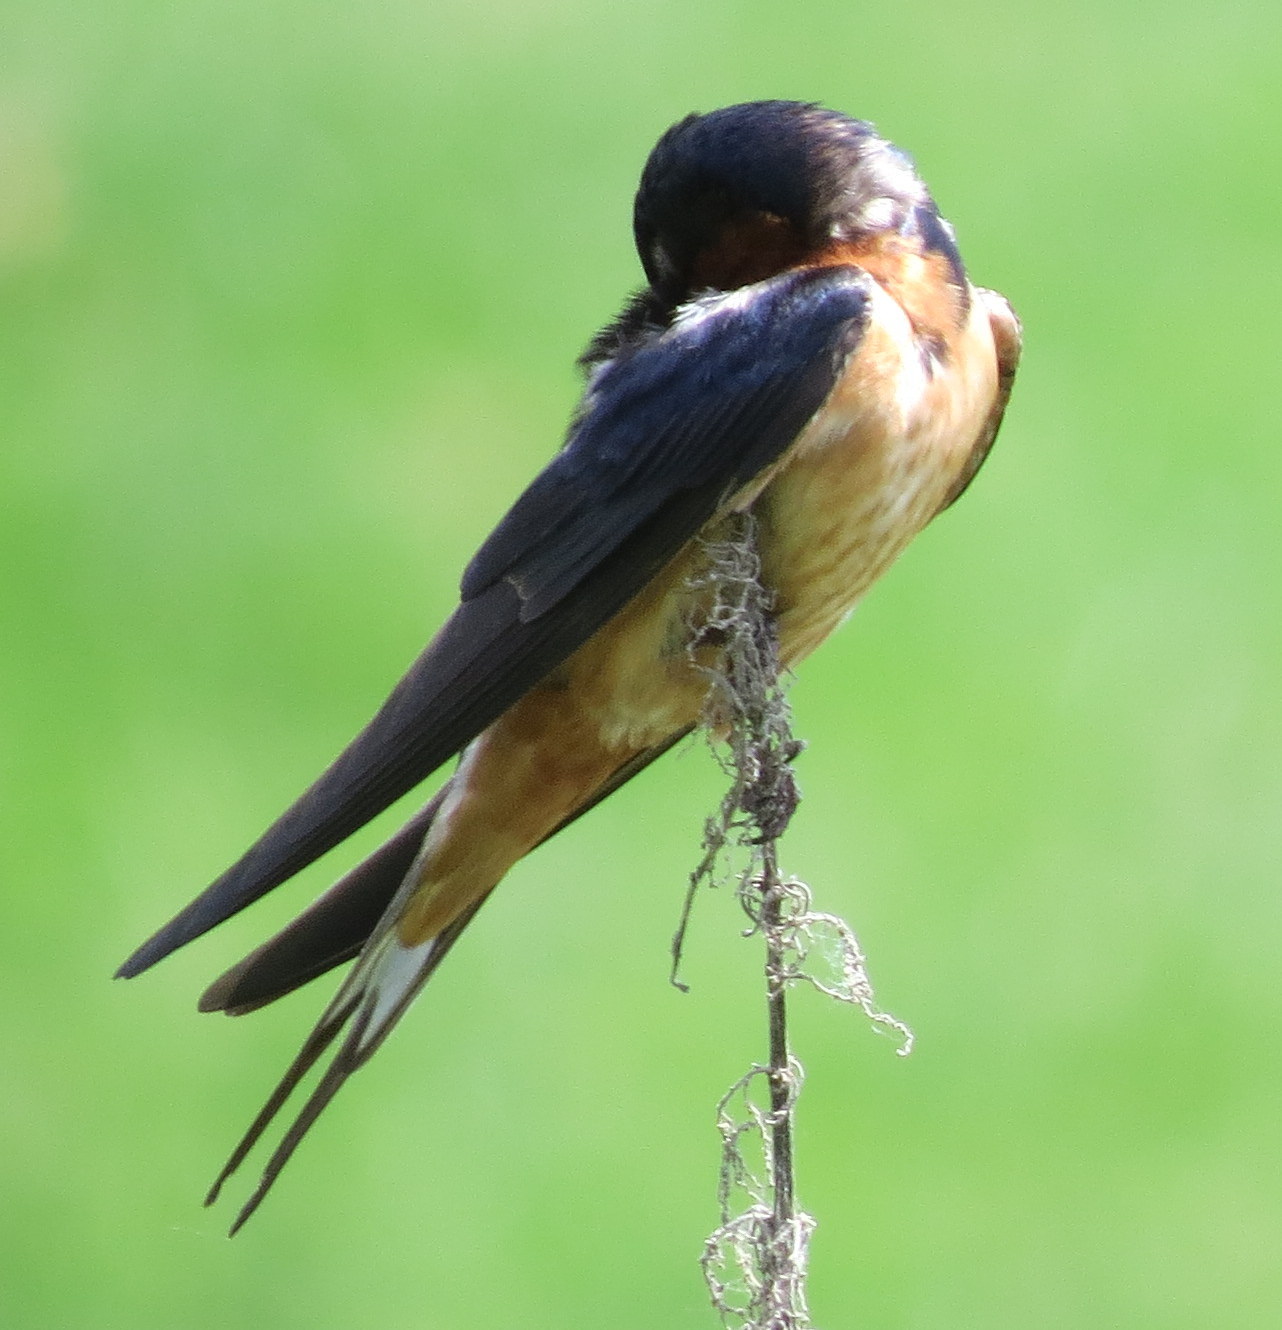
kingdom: Animalia
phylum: Chordata
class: Aves
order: Passeriformes
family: Hirundinidae
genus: Hirundo
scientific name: Hirundo rustica
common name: Barn swallow
